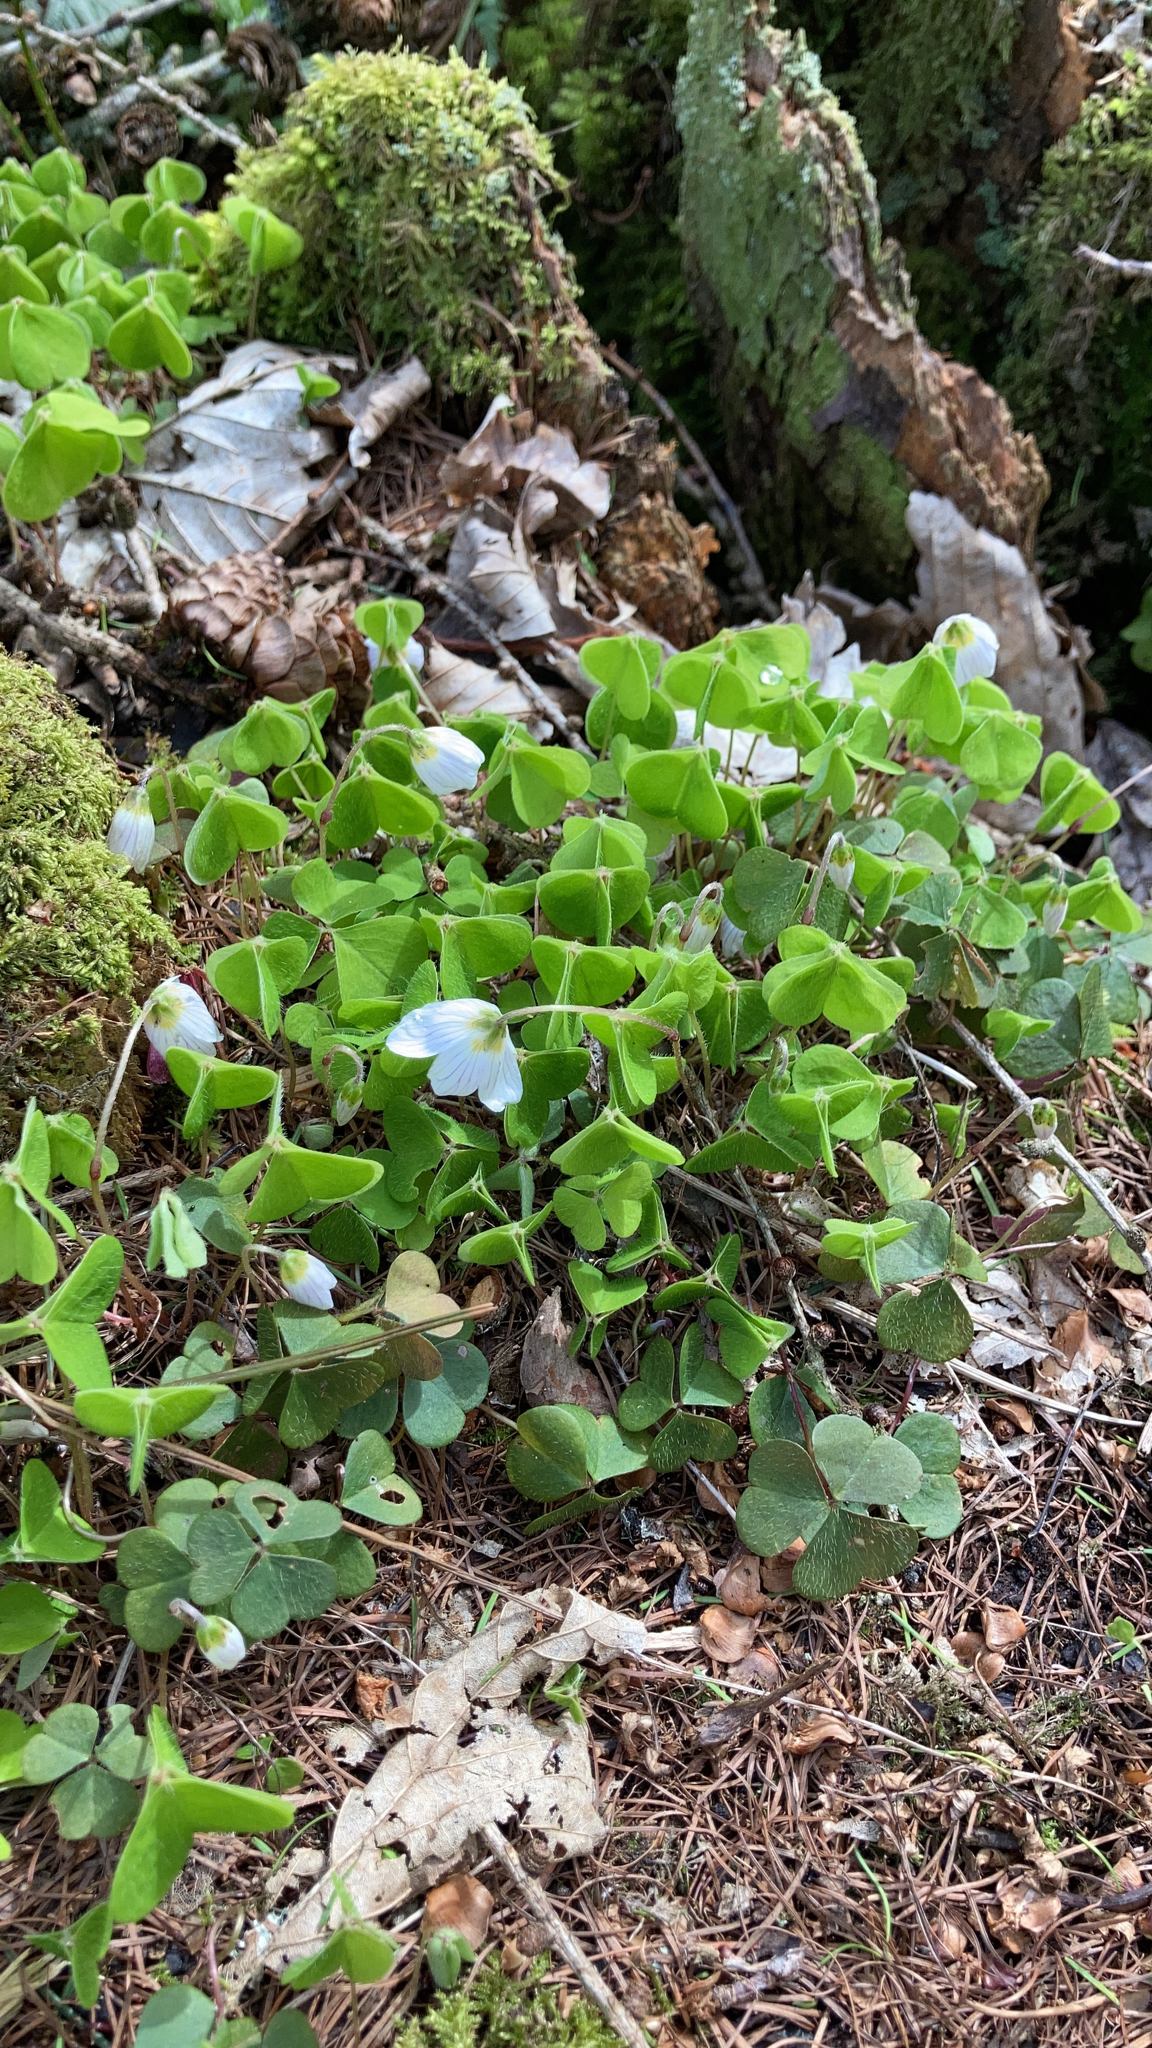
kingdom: Plantae
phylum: Tracheophyta
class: Magnoliopsida
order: Oxalidales
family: Oxalidaceae
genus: Oxalis
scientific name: Oxalis acetosella
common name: Wood-sorrel
